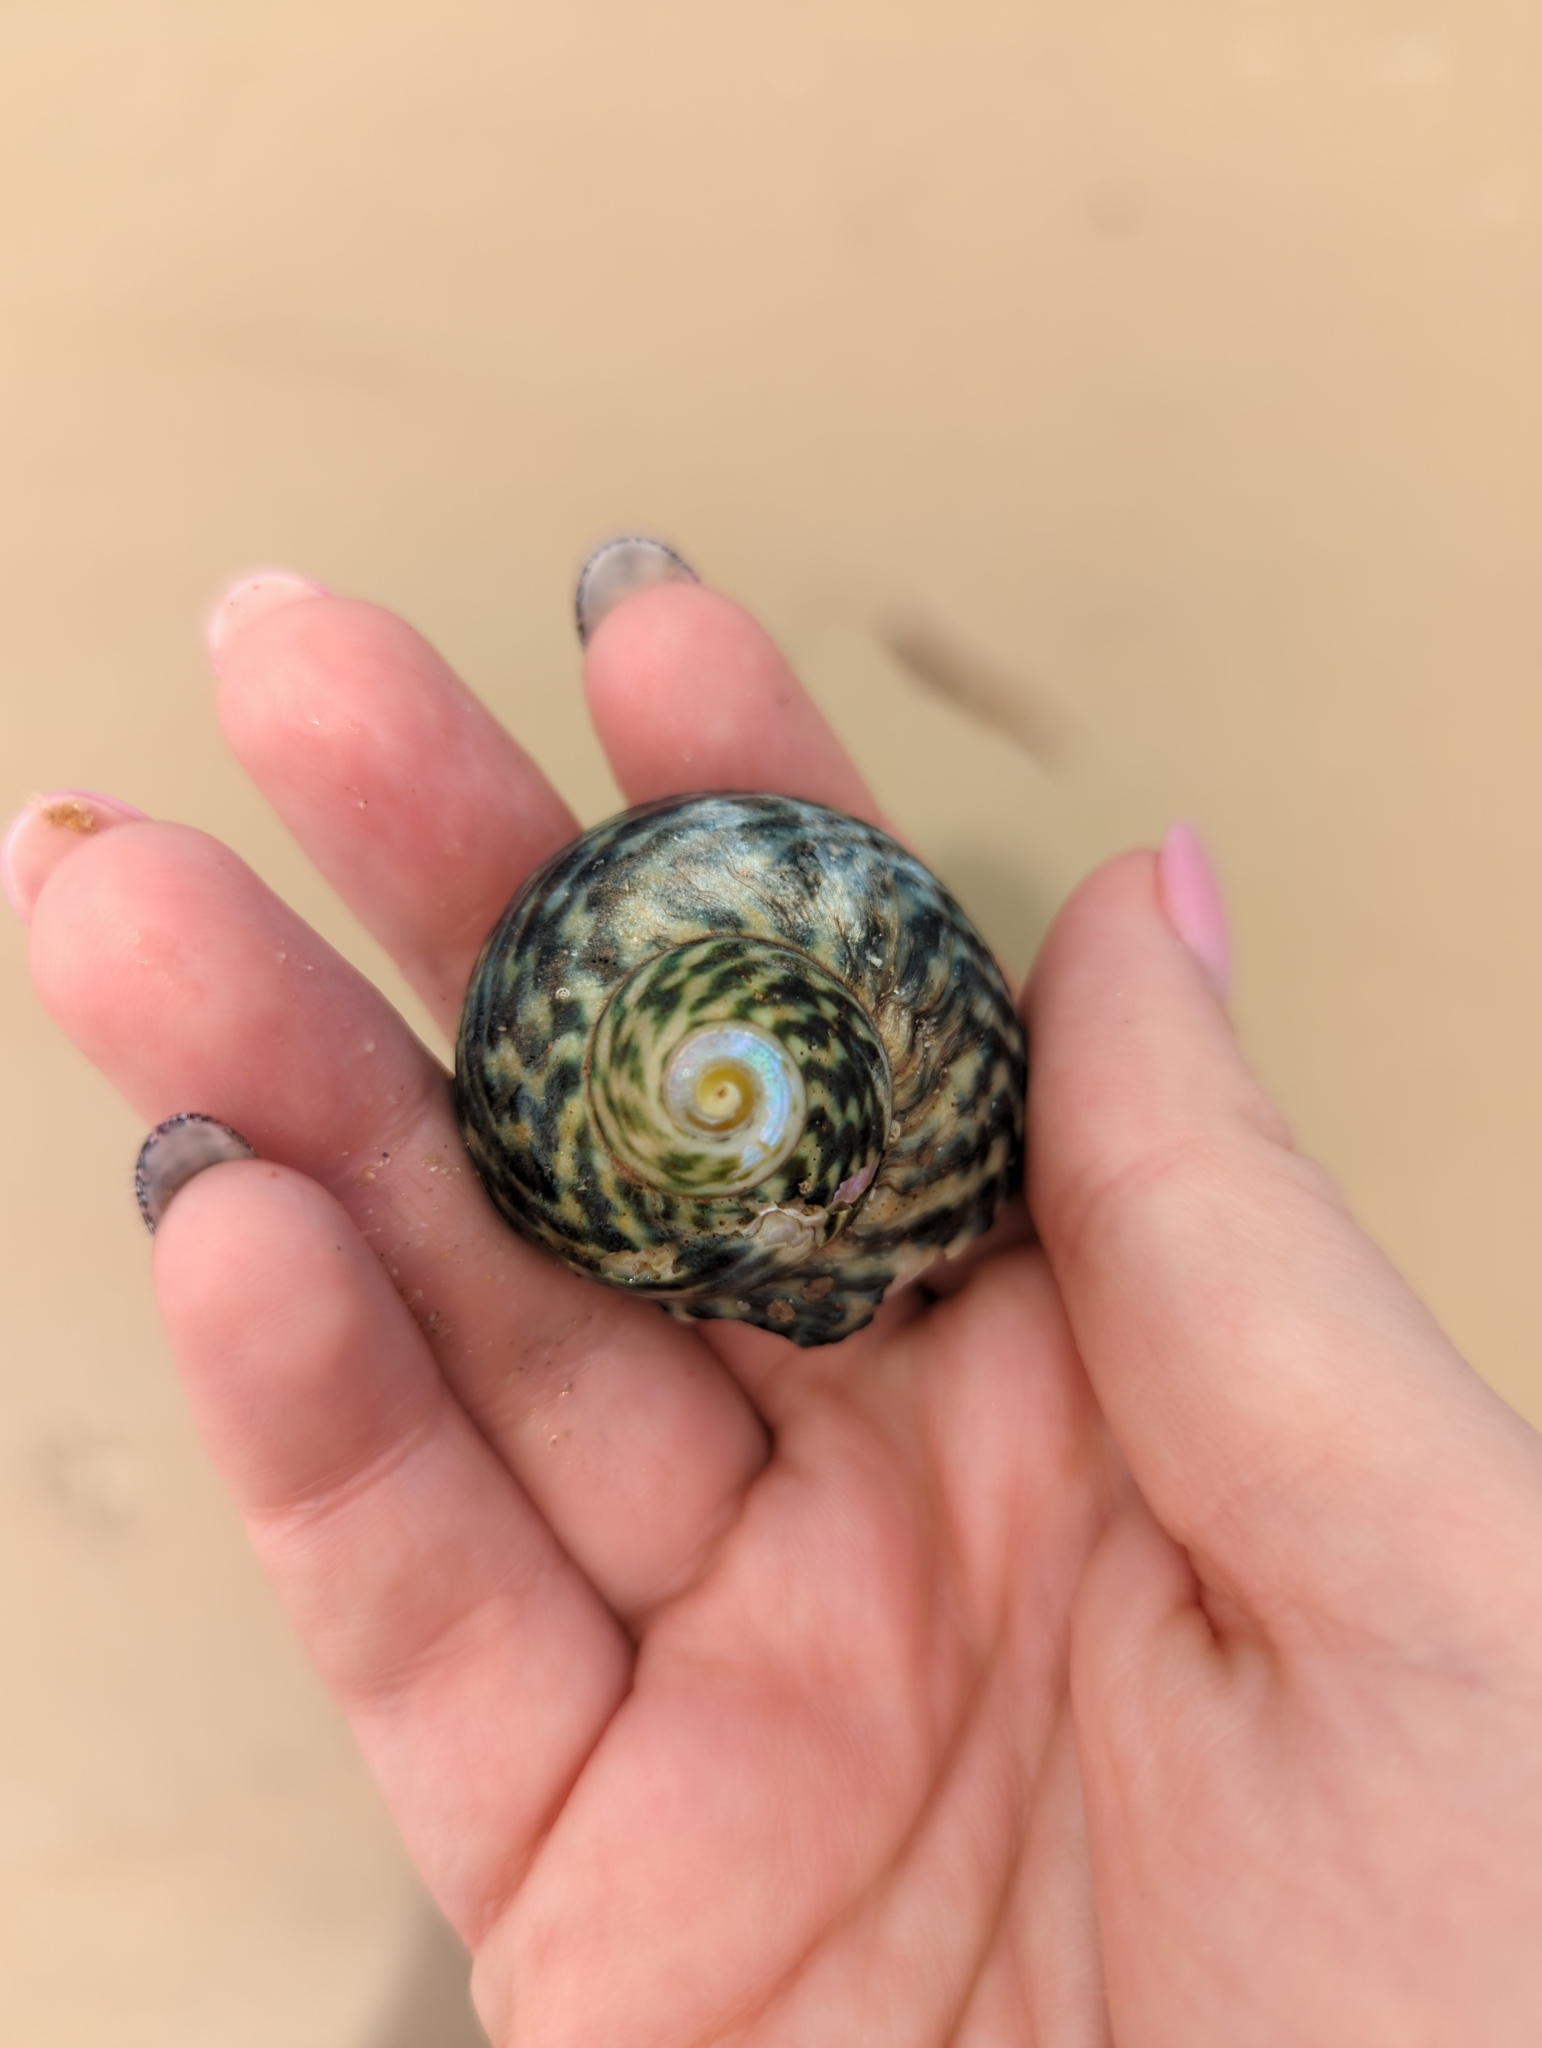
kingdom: Animalia
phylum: Mollusca
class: Gastropoda
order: Trochida
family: Turbinidae
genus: Lunella
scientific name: Lunella undulata
